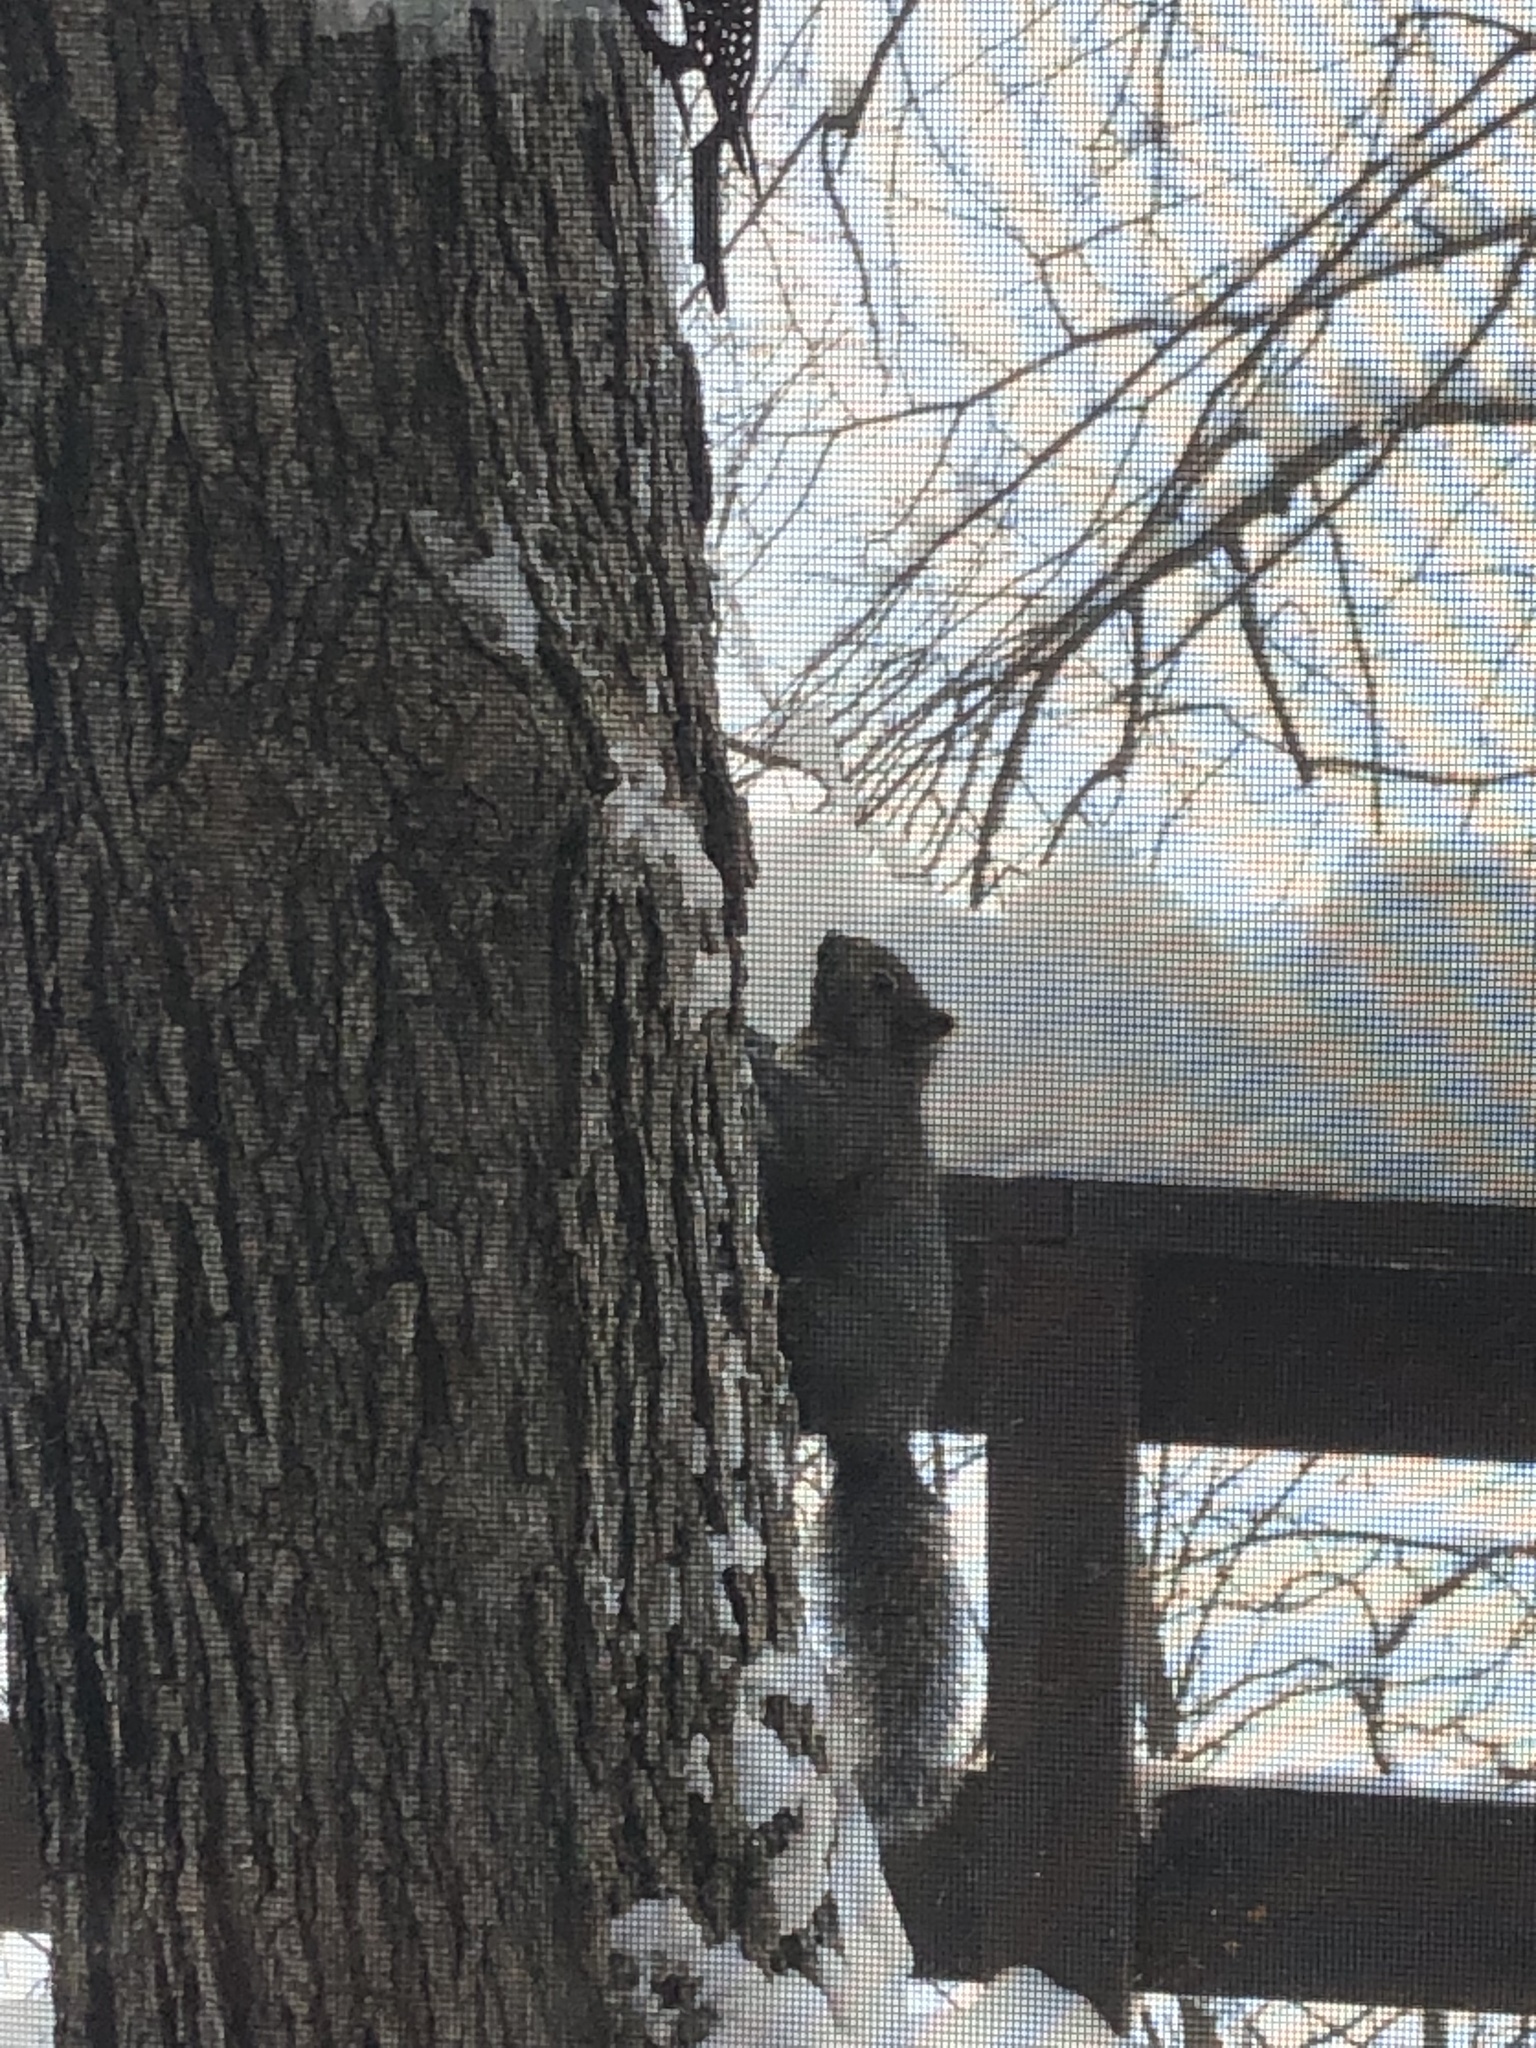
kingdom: Animalia
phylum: Chordata
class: Mammalia
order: Rodentia
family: Sciuridae
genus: Sciurus
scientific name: Sciurus carolinensis
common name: Eastern gray squirrel
